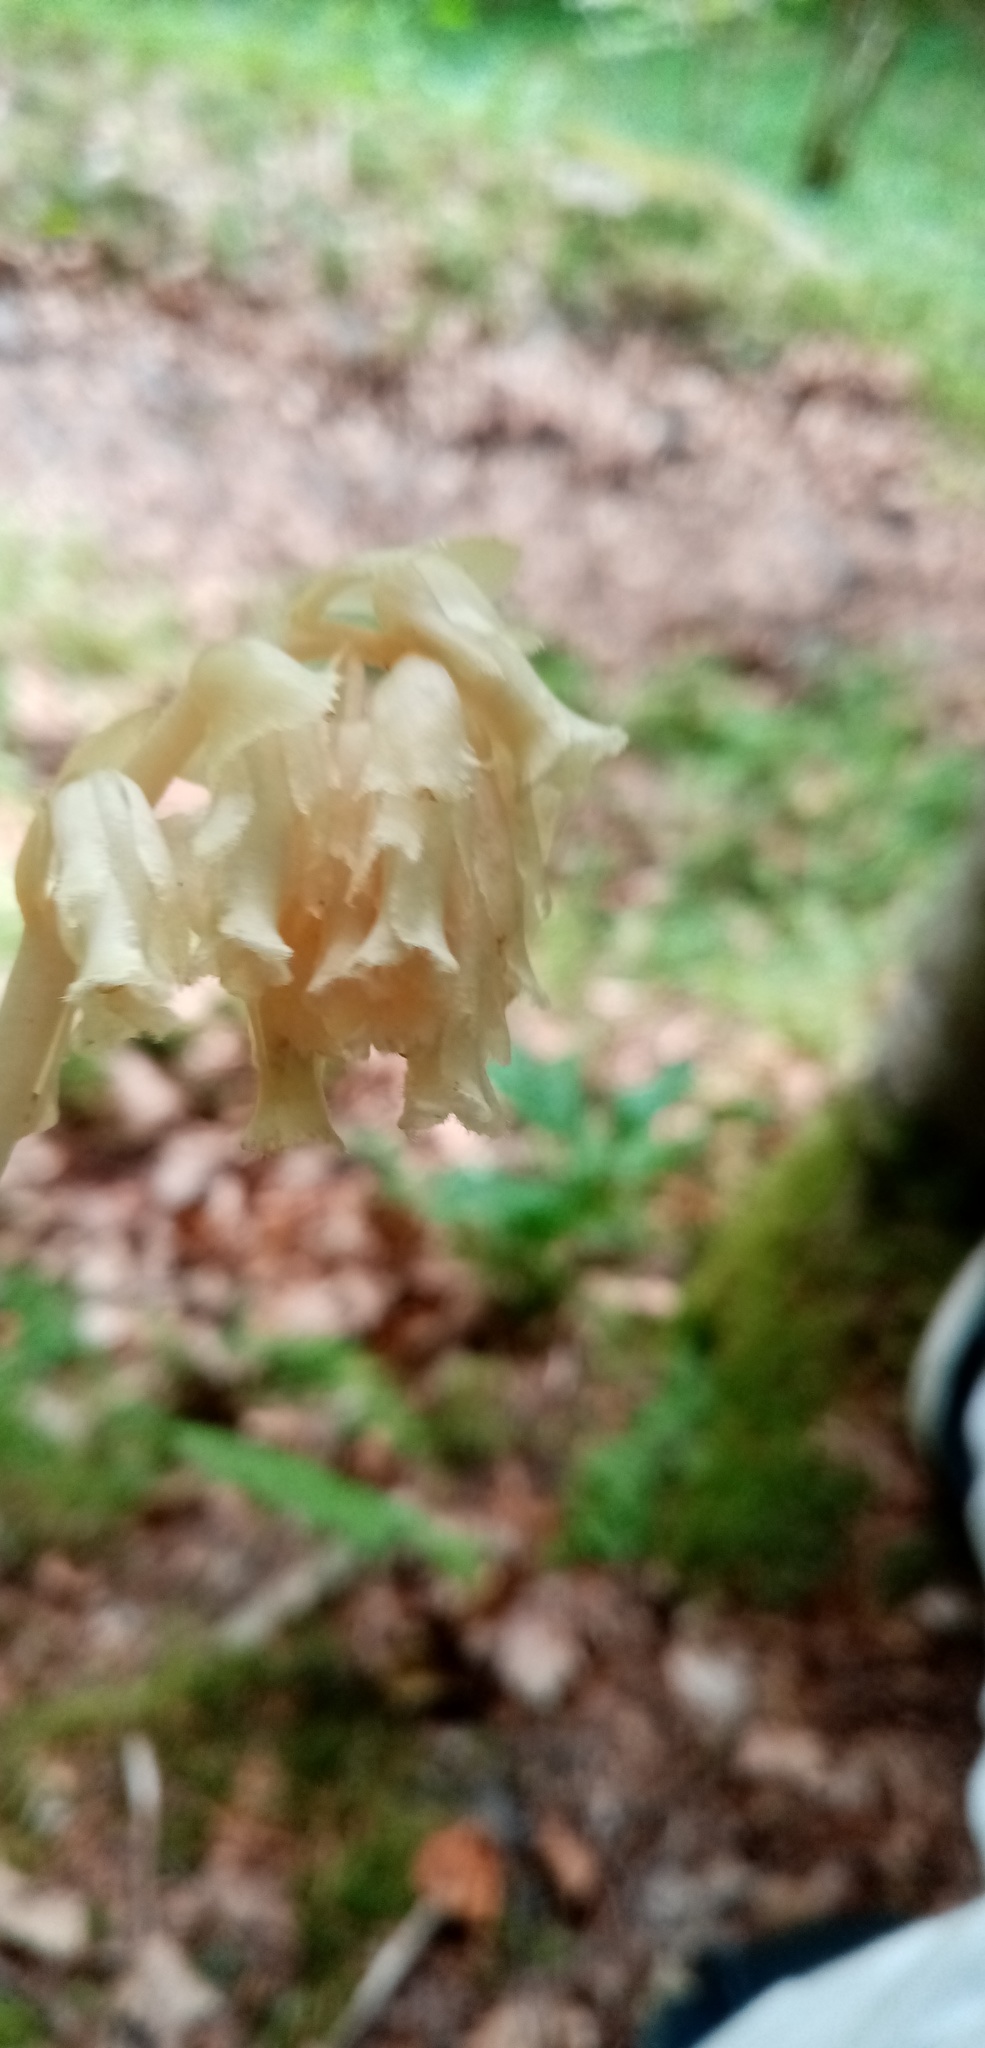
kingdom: Plantae
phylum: Tracheophyta
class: Magnoliopsida
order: Ericales
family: Ericaceae
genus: Hypopitys
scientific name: Hypopitys monotropa
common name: Yellow bird's-nest
